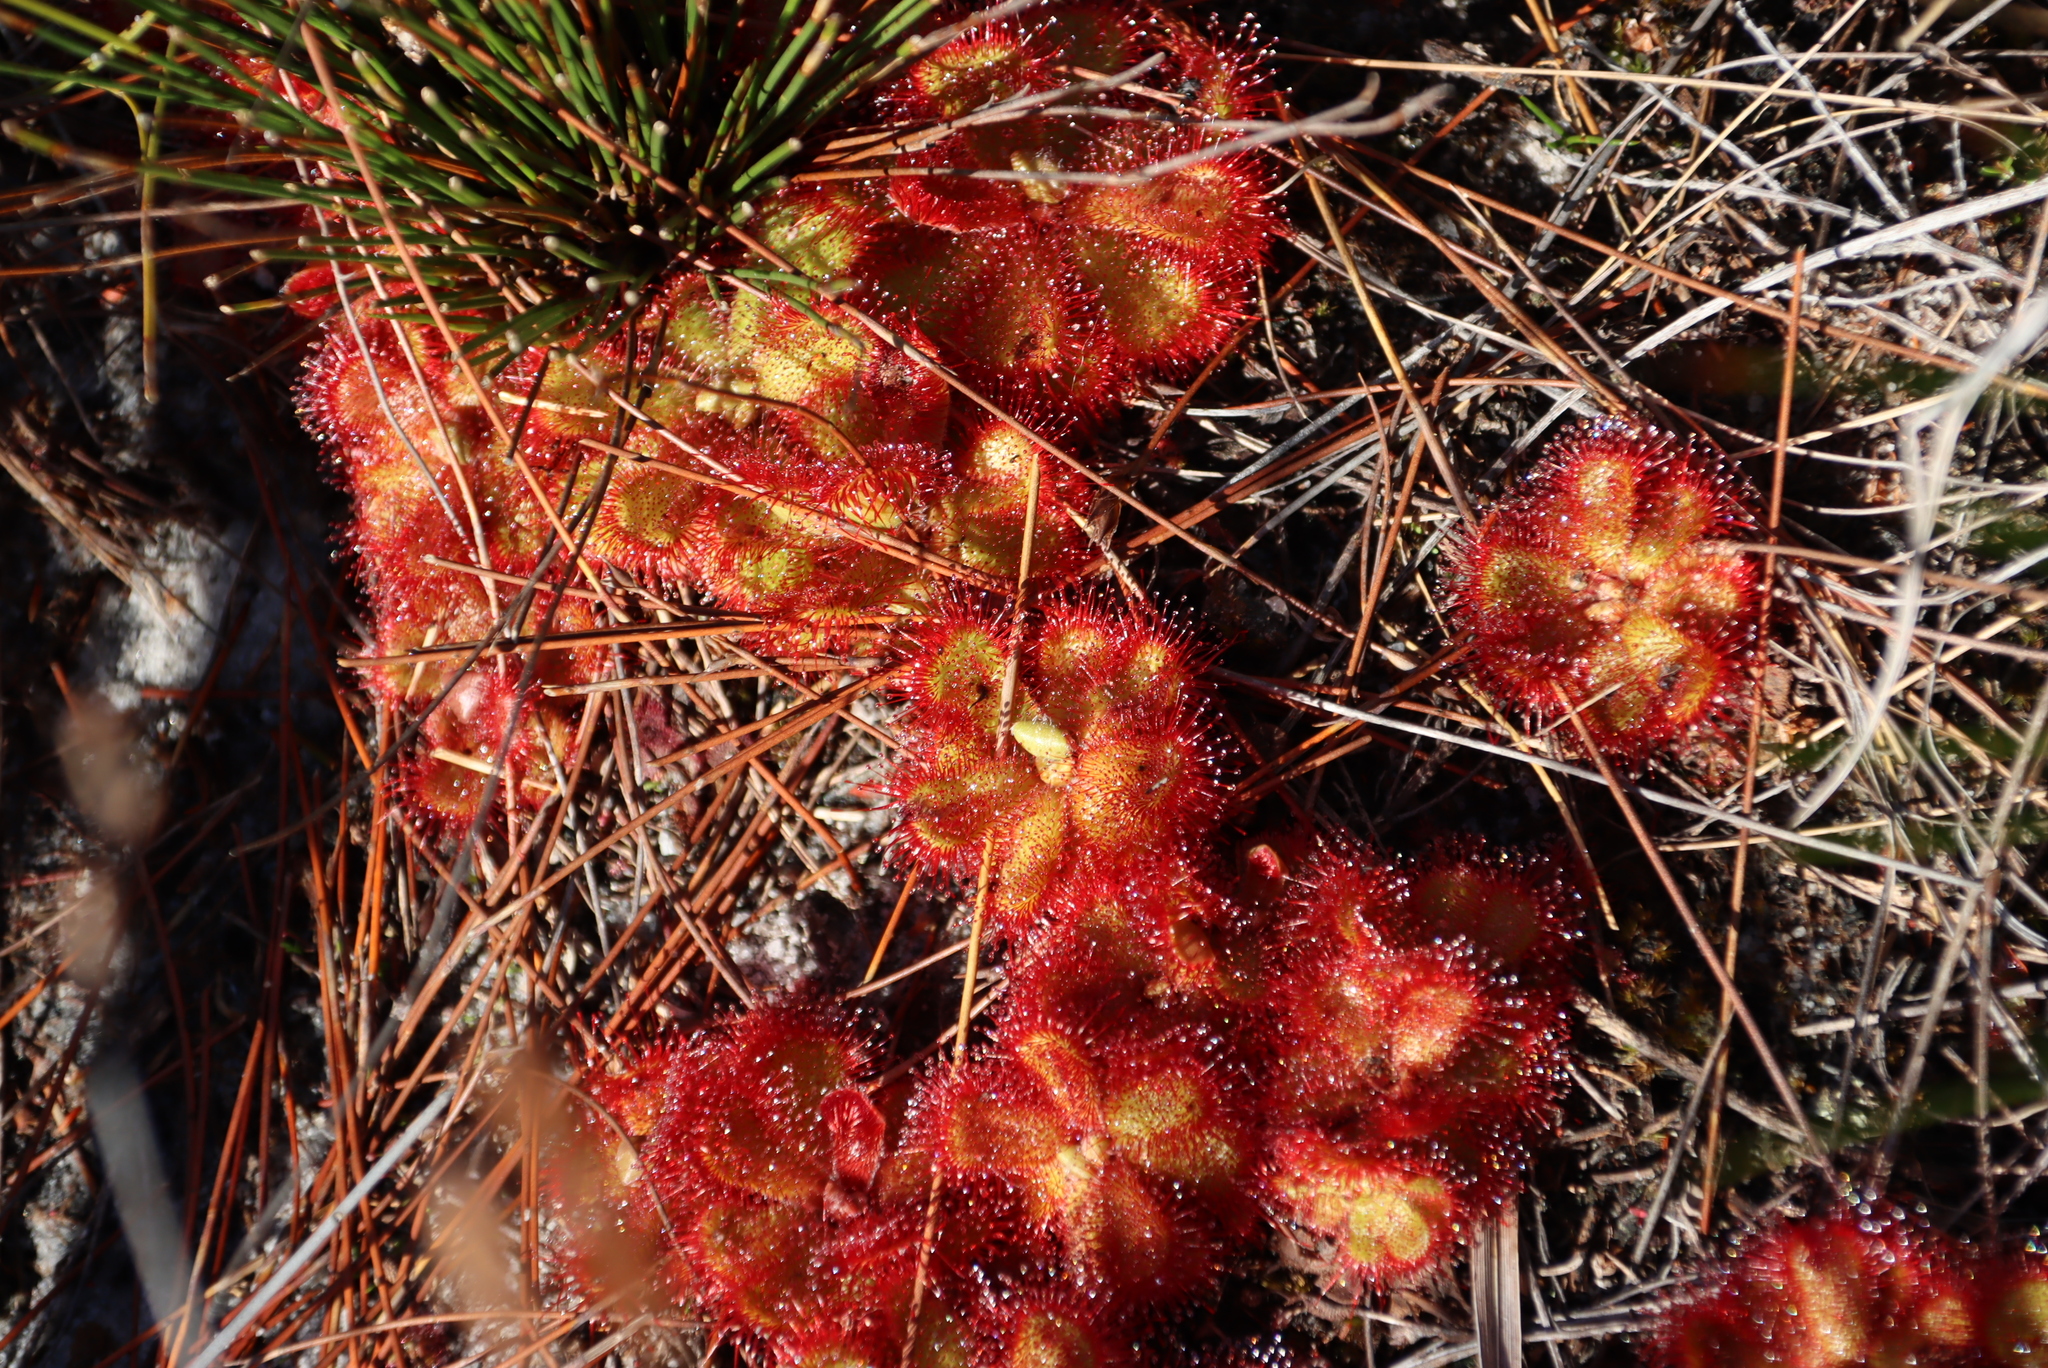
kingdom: Plantae
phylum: Tracheophyta
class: Magnoliopsida
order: Caryophyllales
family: Droseraceae
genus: Drosera
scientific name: Drosera cuneifolia
